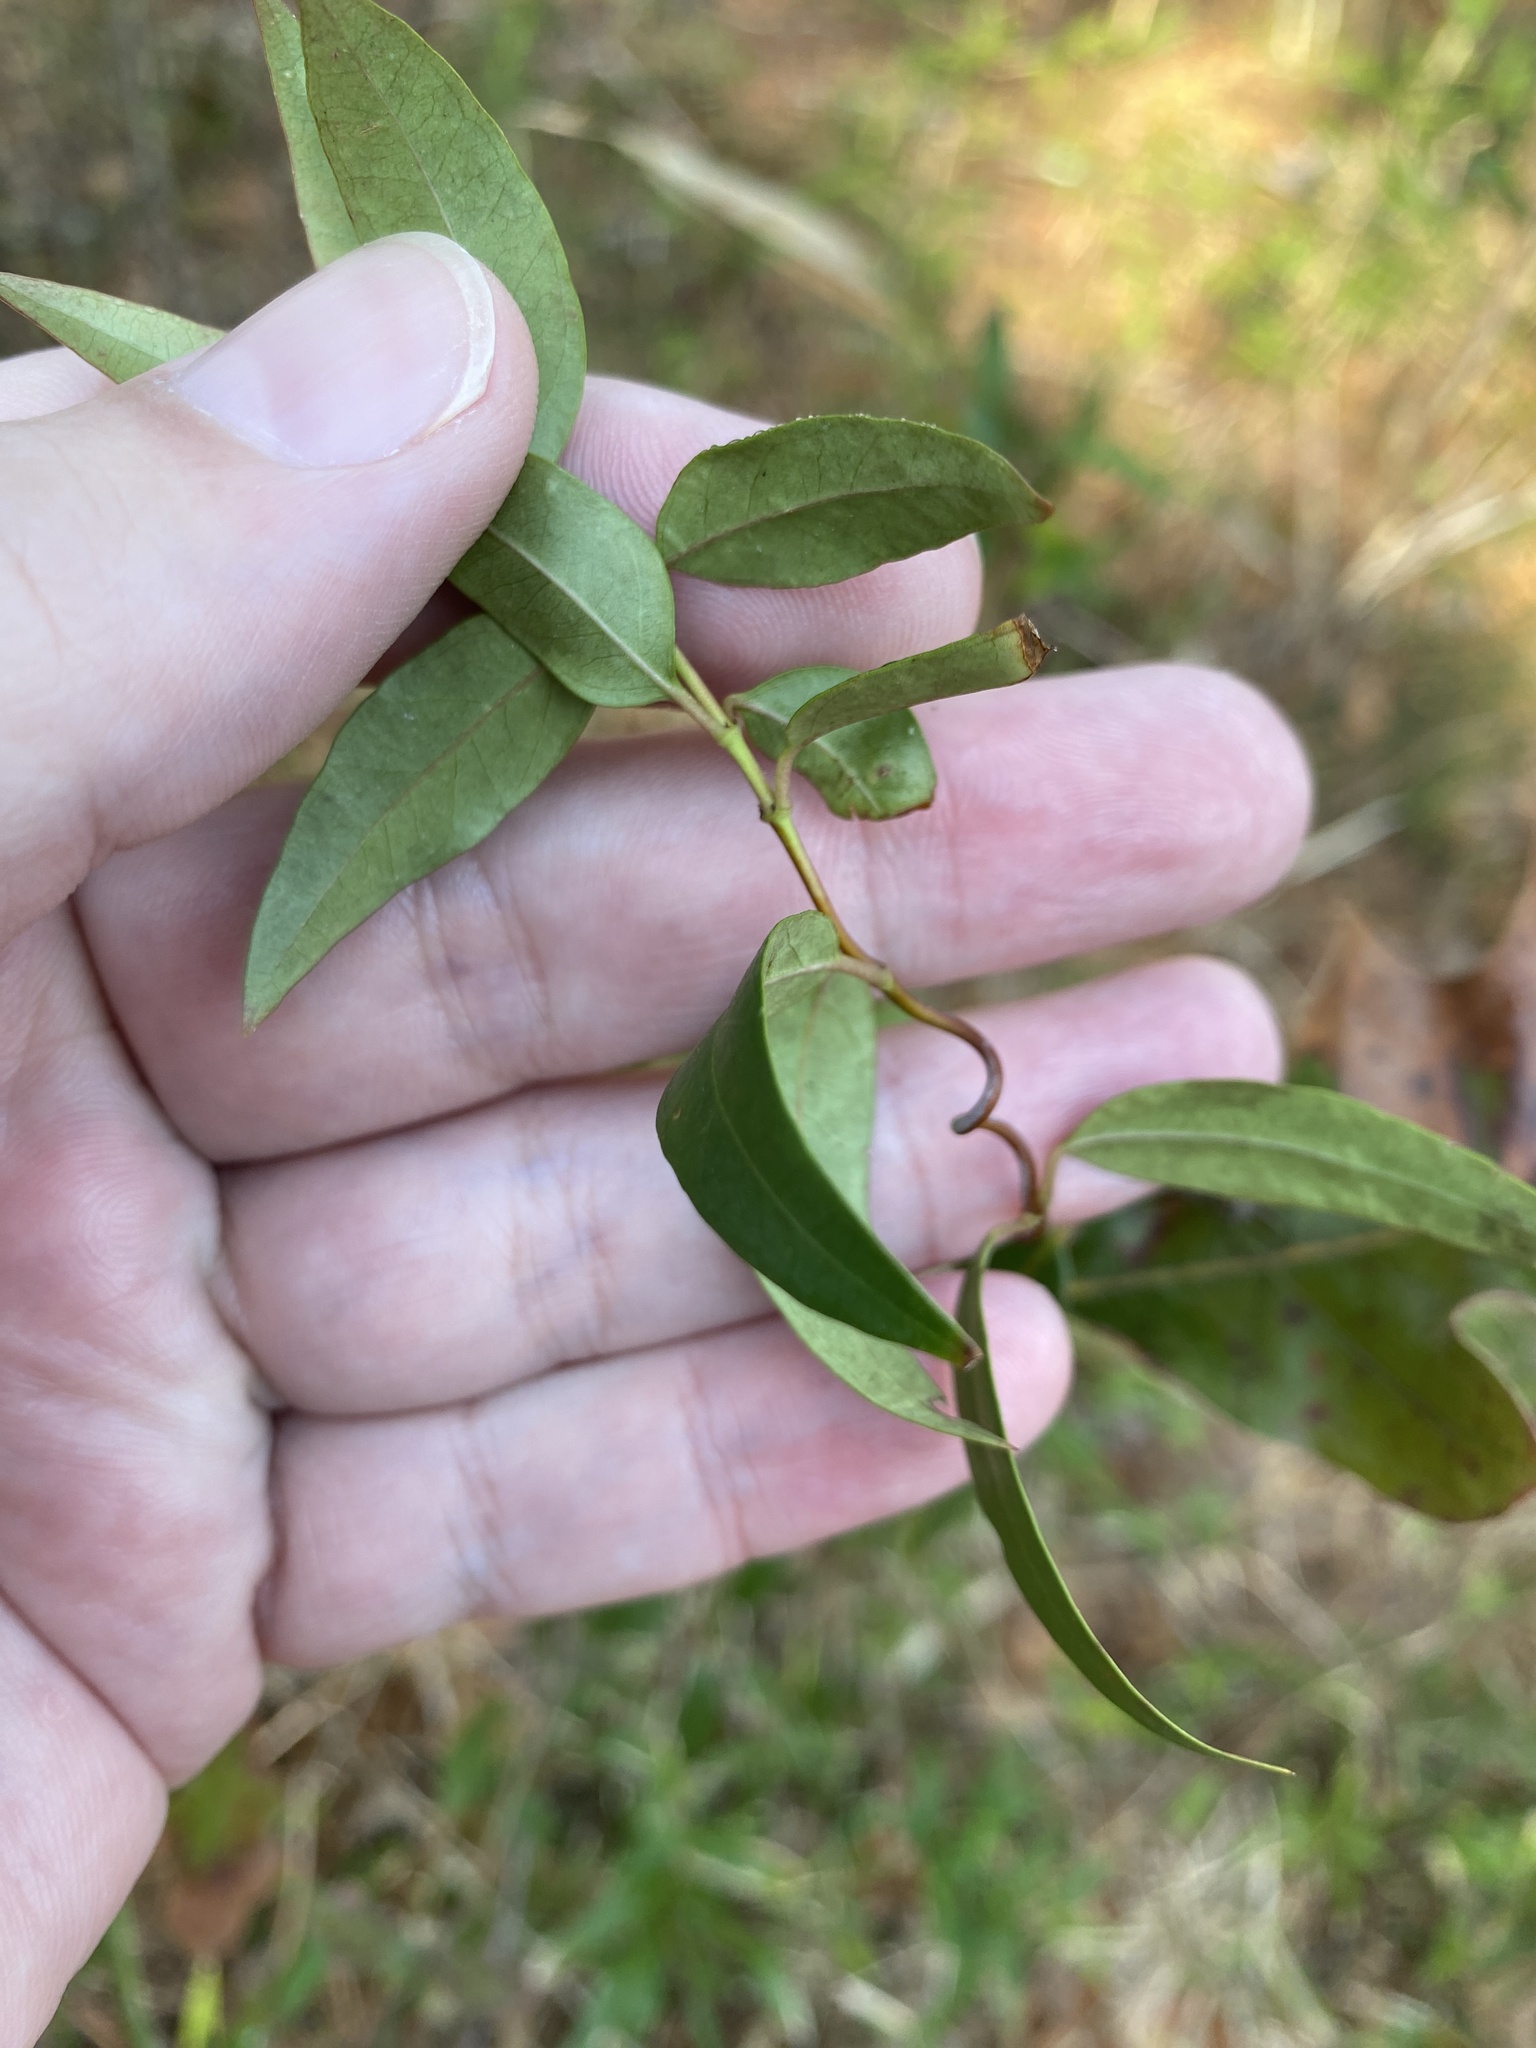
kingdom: Plantae
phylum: Tracheophyta
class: Magnoliopsida
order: Gentianales
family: Gelsemiaceae
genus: Gelsemium
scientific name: Gelsemium sempervirens
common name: Carolina-jasmine
